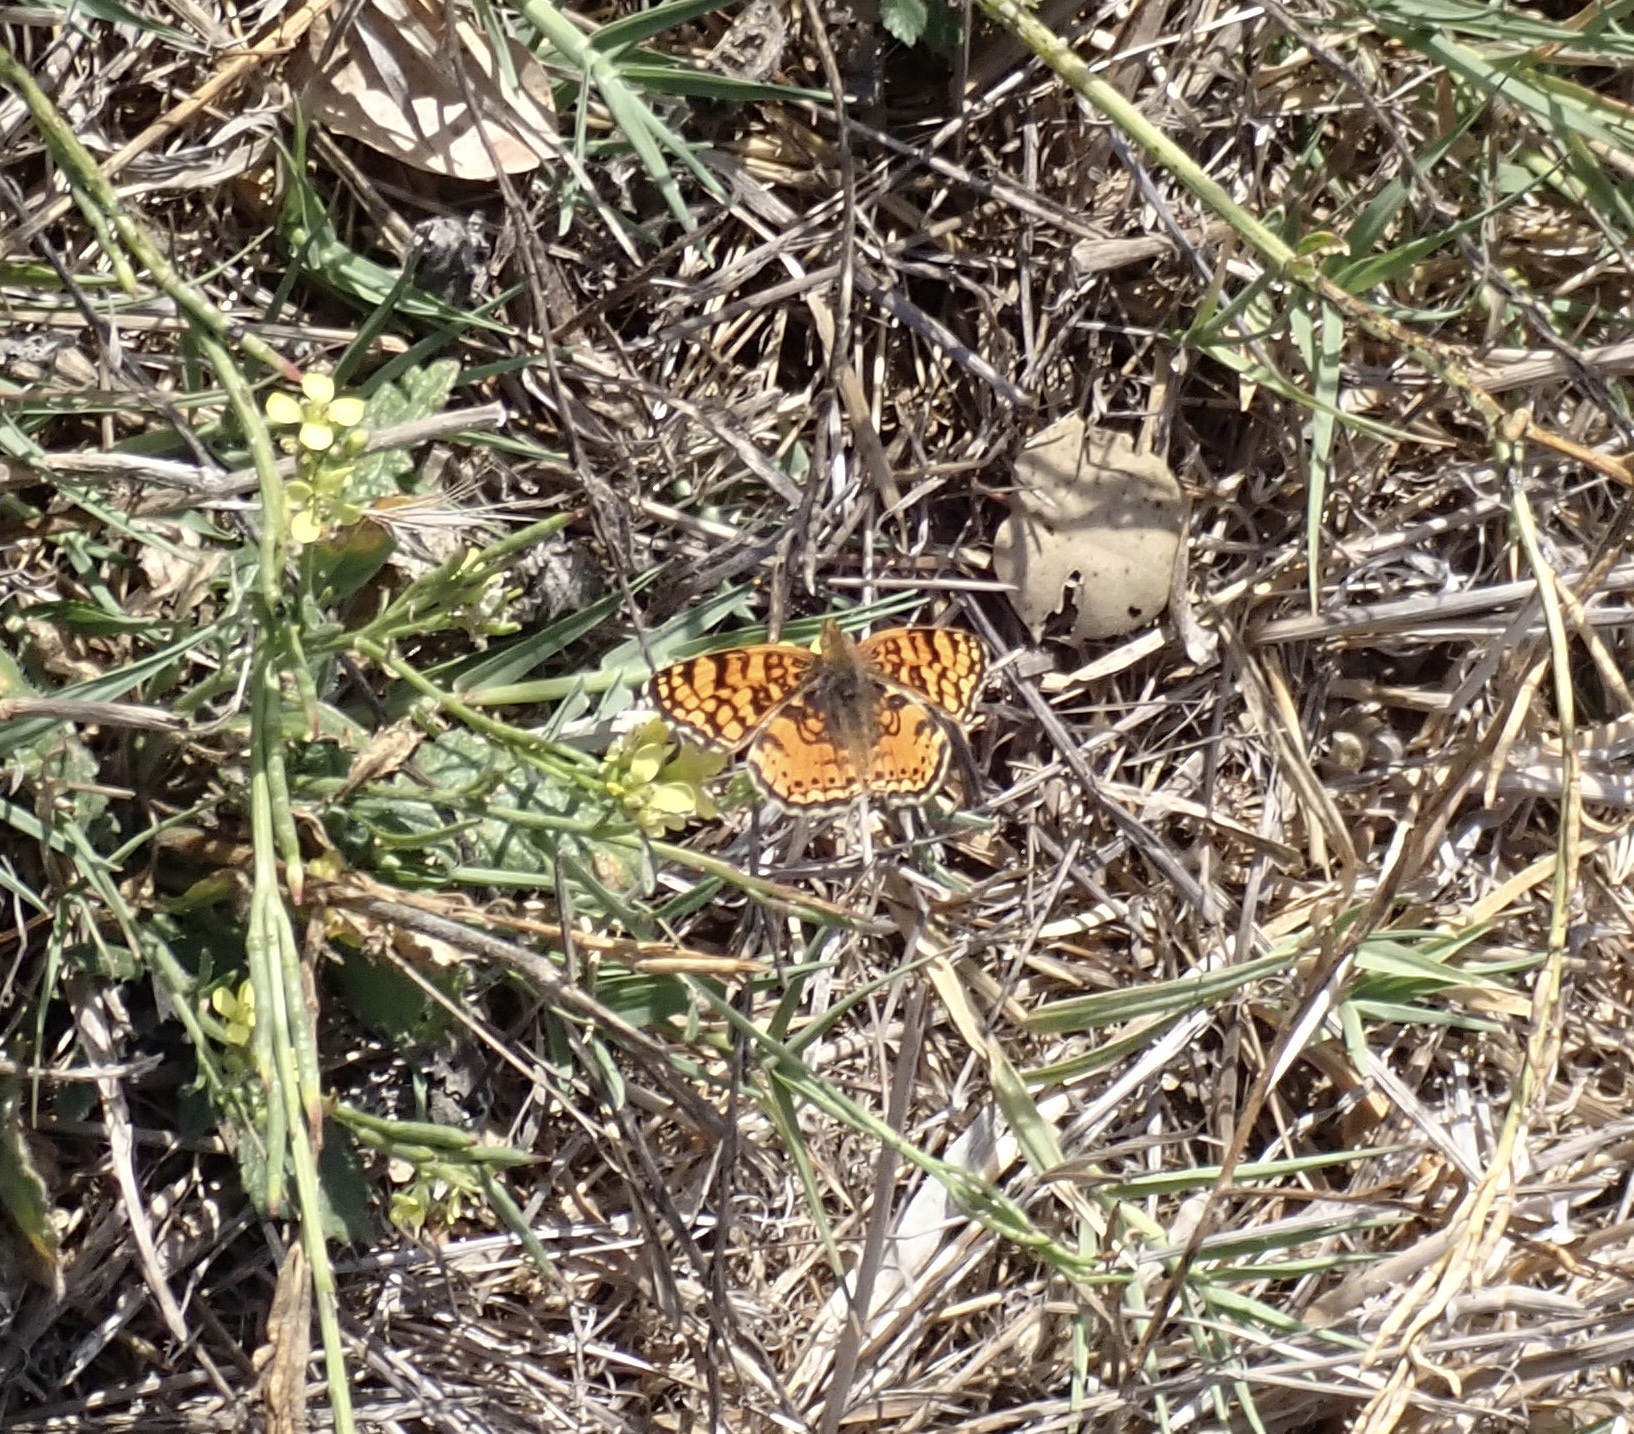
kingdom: Animalia
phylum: Arthropoda
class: Insecta
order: Lepidoptera
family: Nymphalidae
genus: Eresia
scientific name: Eresia aveyrona
